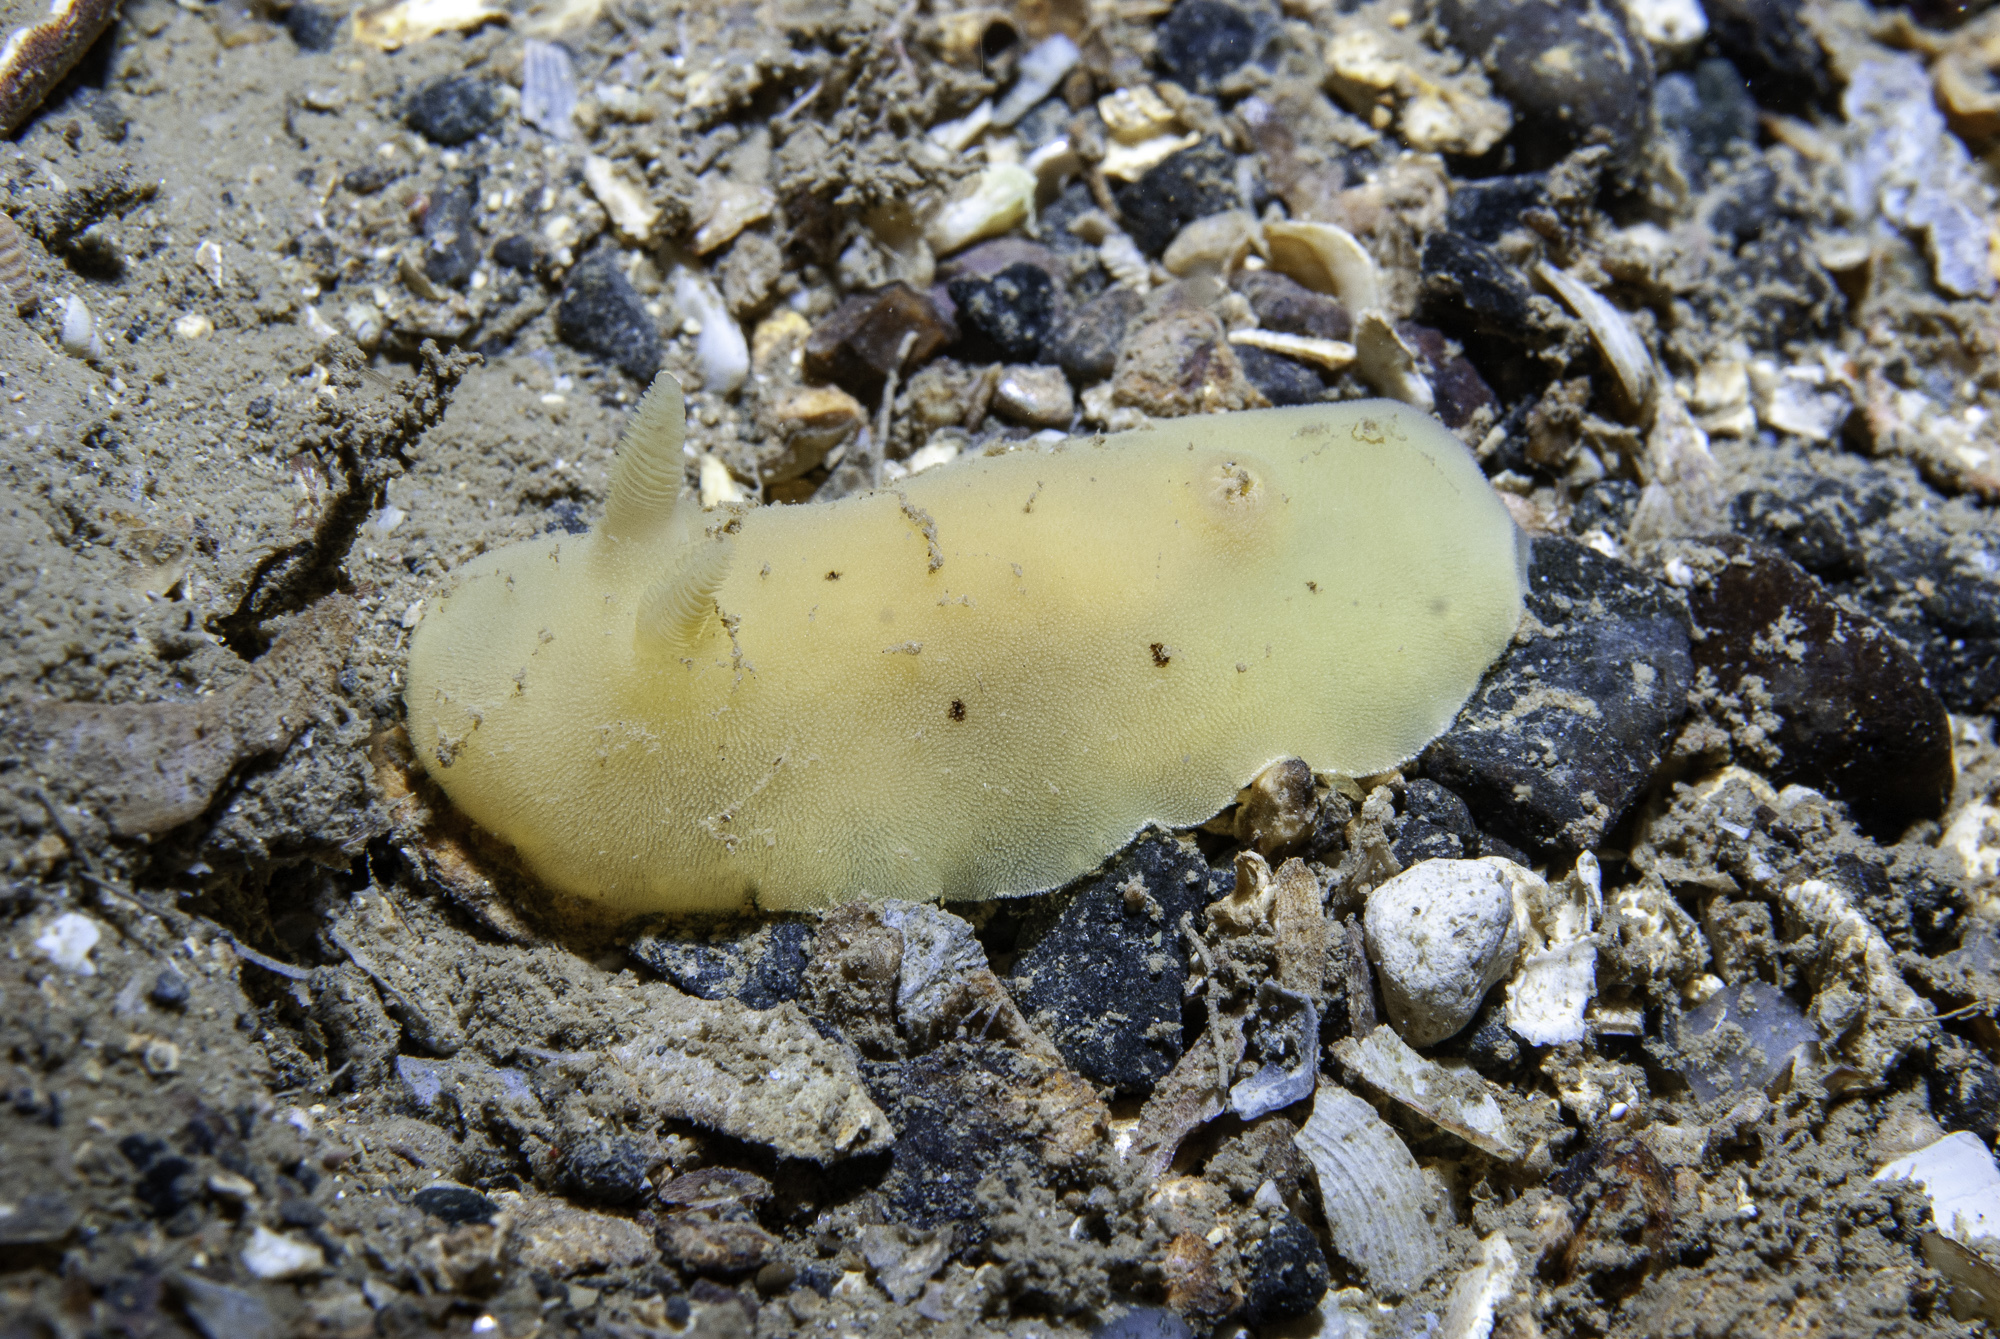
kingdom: Animalia
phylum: Mollusca
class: Gastropoda
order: Nudibranchia
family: Discodorididae
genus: Jorunna
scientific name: Jorunna artsdatabankia
